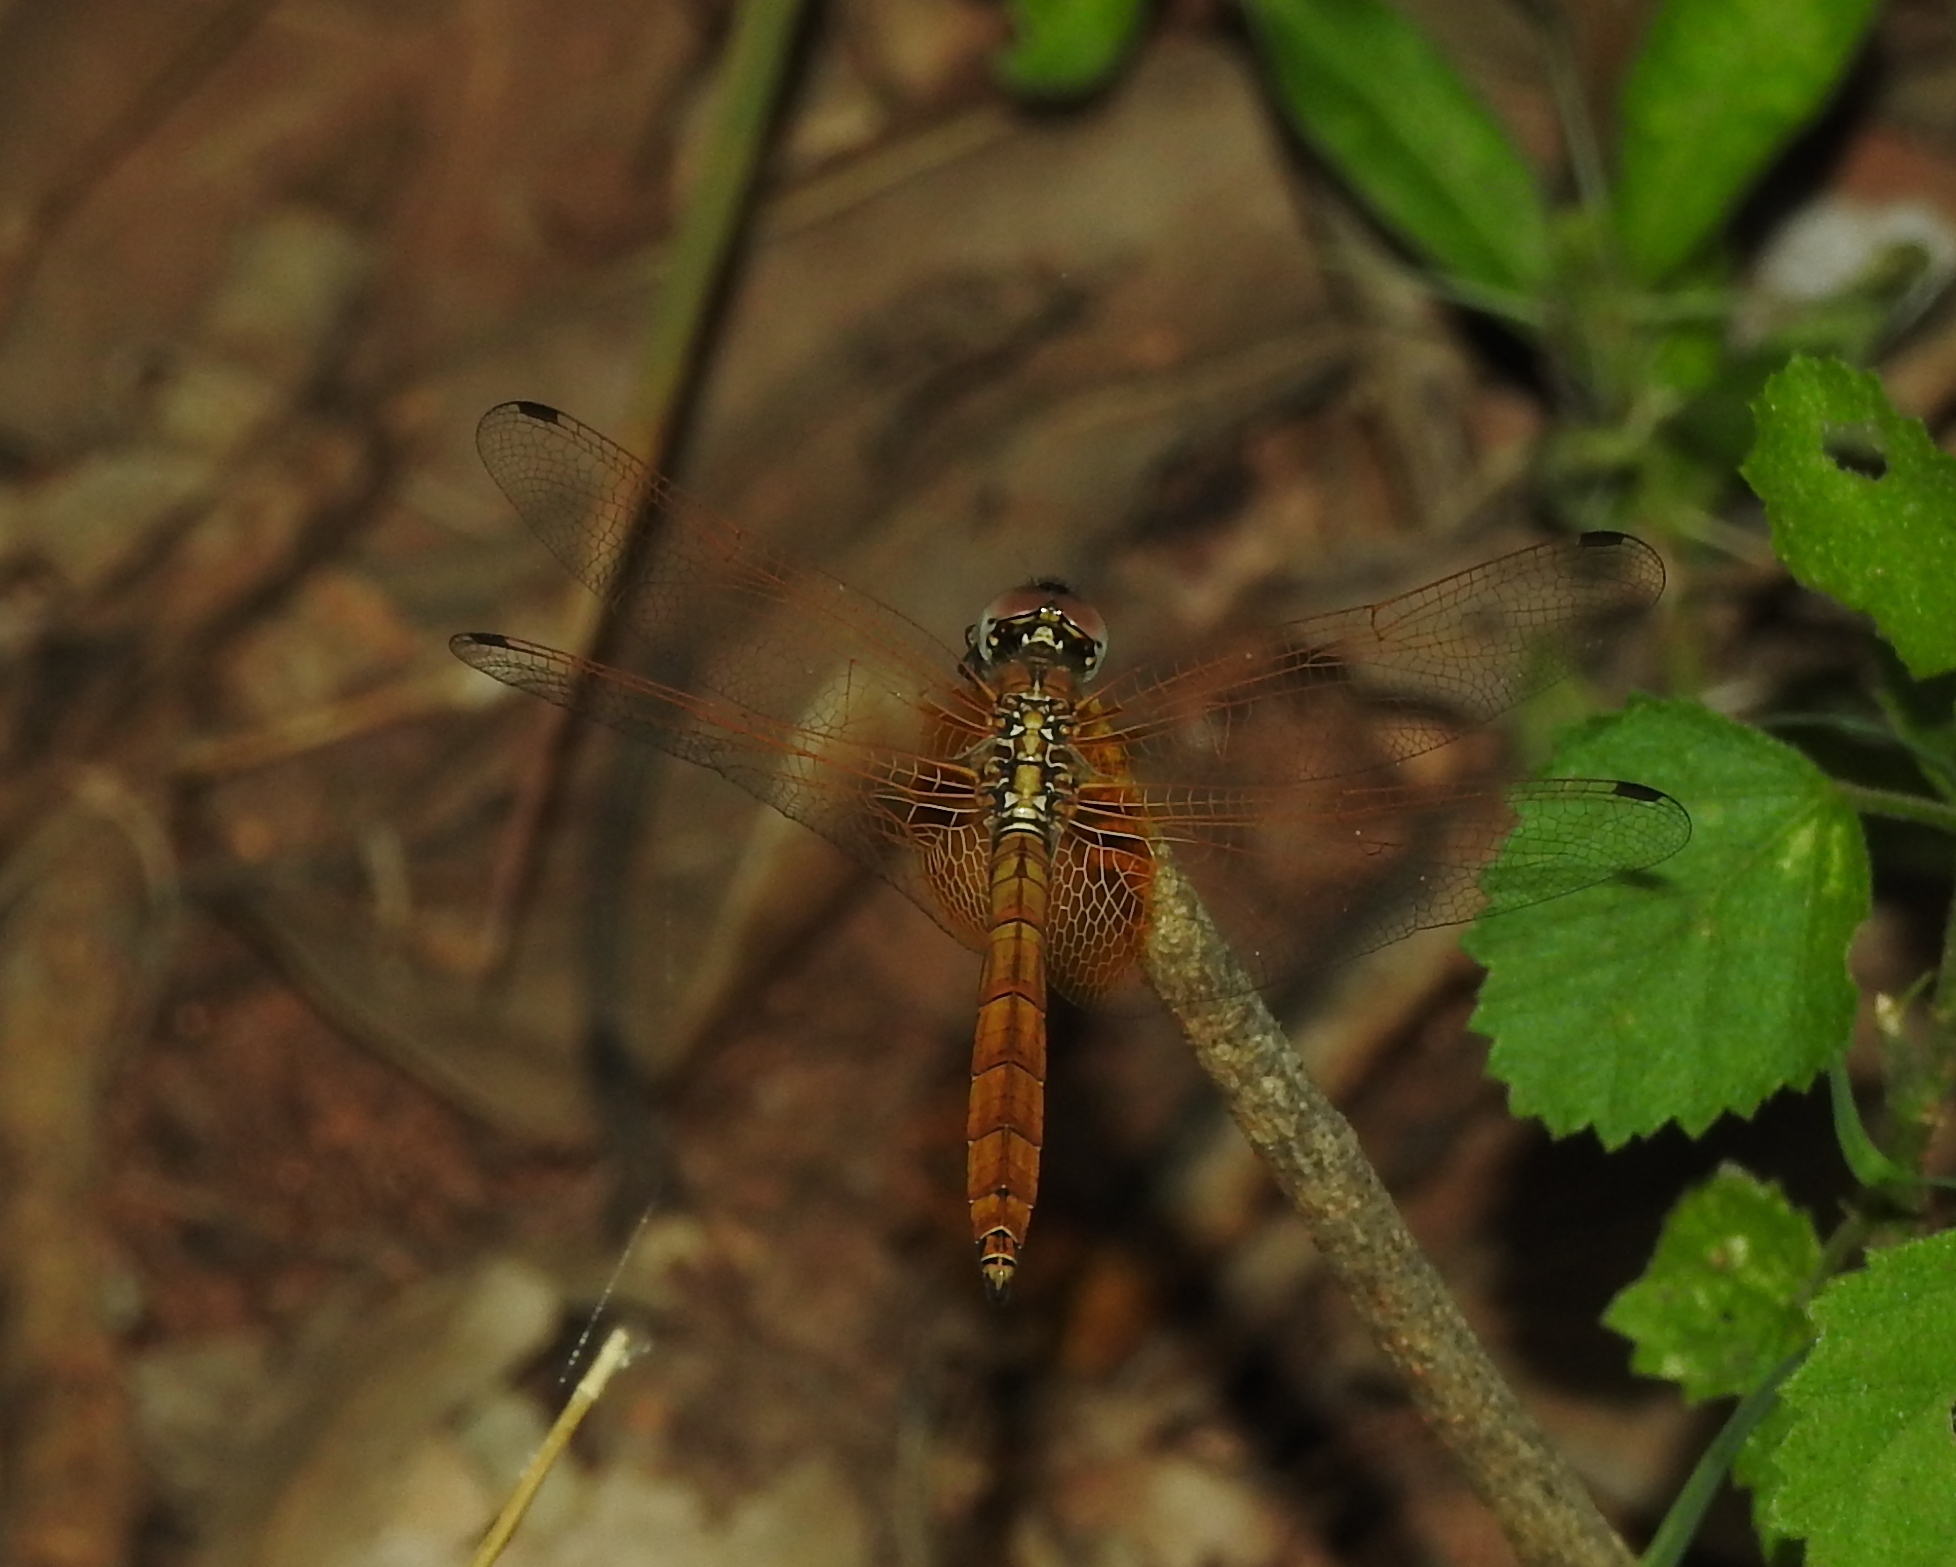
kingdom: Animalia
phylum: Arthropoda
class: Insecta
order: Odonata
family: Libellulidae
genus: Trithemis
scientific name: Trithemis aurora
